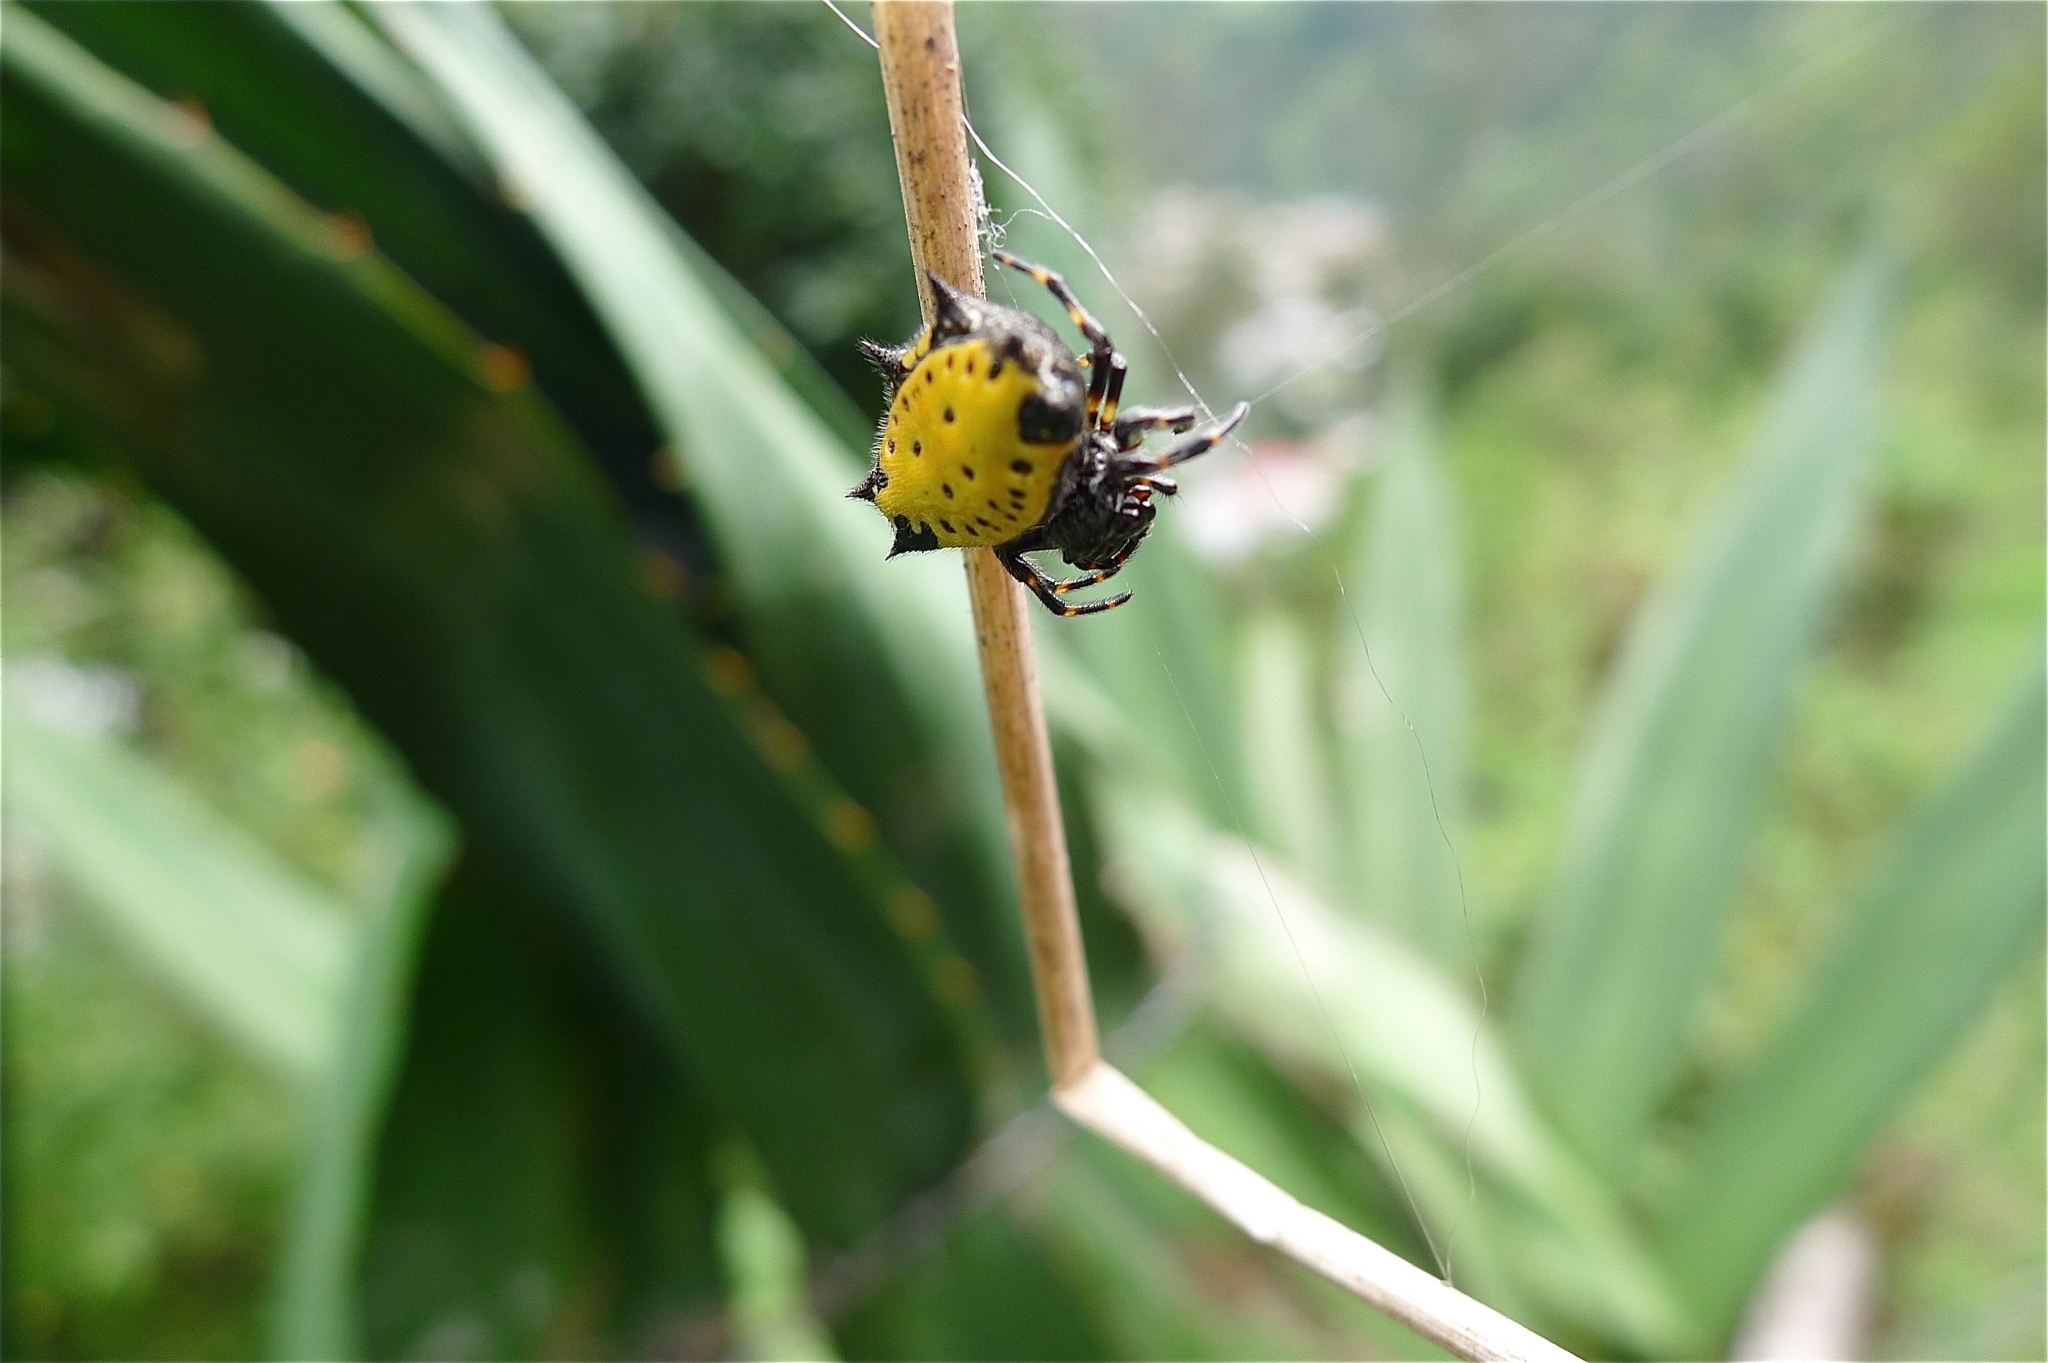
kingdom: Animalia
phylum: Arthropoda
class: Arachnida
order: Araneae
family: Araneidae
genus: Gasteracantha
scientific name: Gasteracantha cancriformis
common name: Orb weavers
